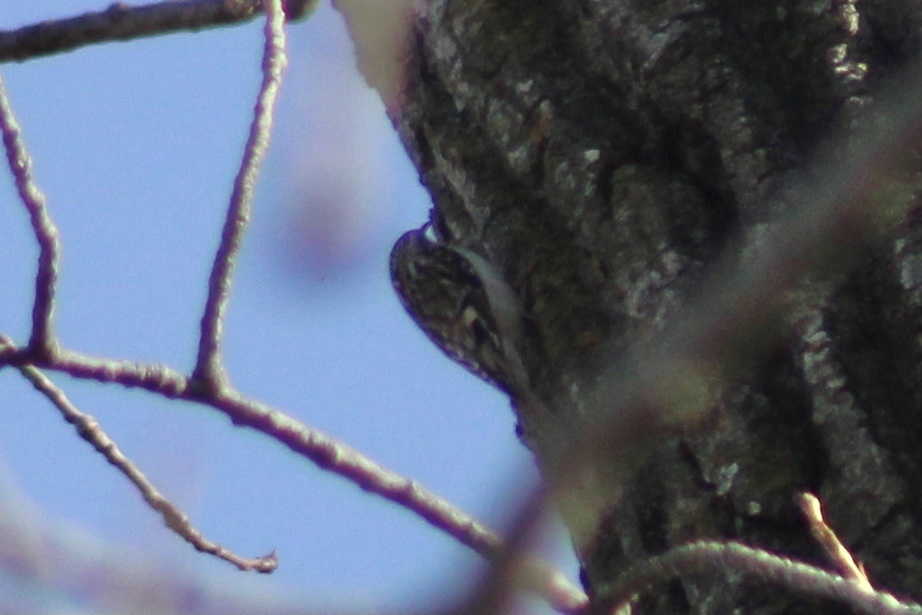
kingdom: Animalia
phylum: Chordata
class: Aves
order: Passeriformes
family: Certhiidae
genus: Certhia
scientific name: Certhia americana
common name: Brown creeper
